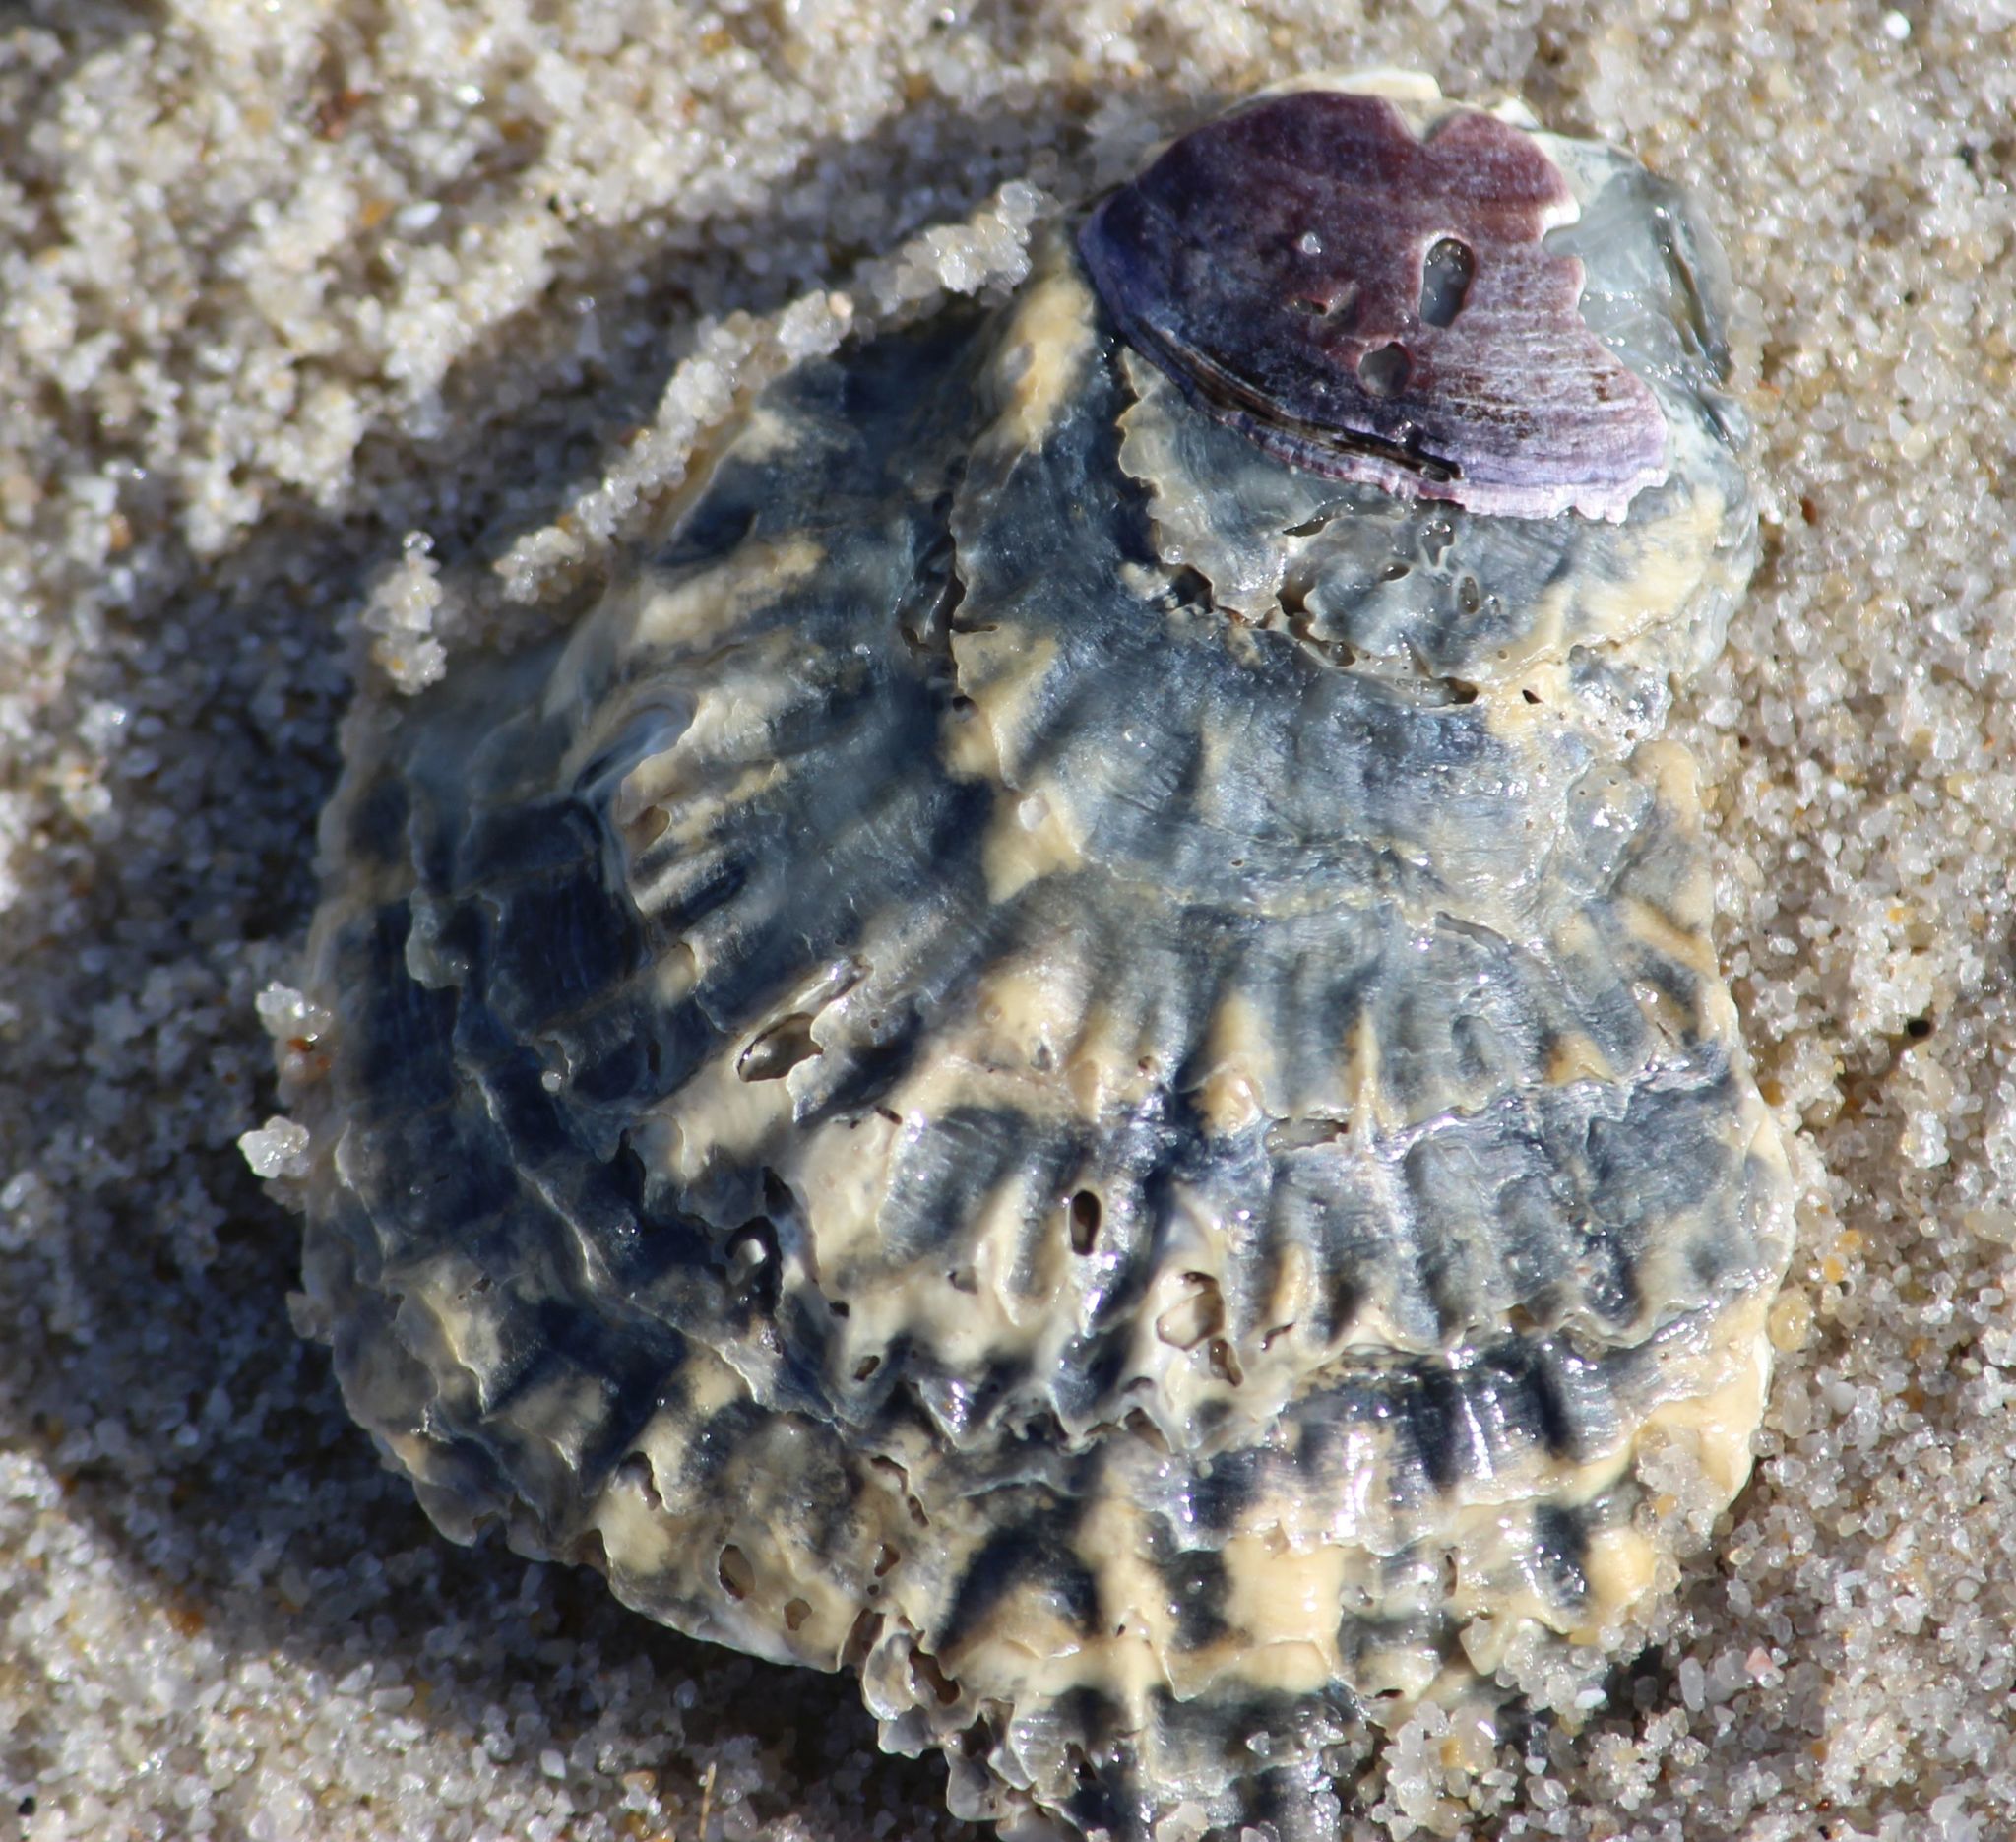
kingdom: Animalia
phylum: Mollusca
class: Bivalvia
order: Ostreida
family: Ostreidae
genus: Ostrea
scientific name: Ostrea edulis
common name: Flat oyster
